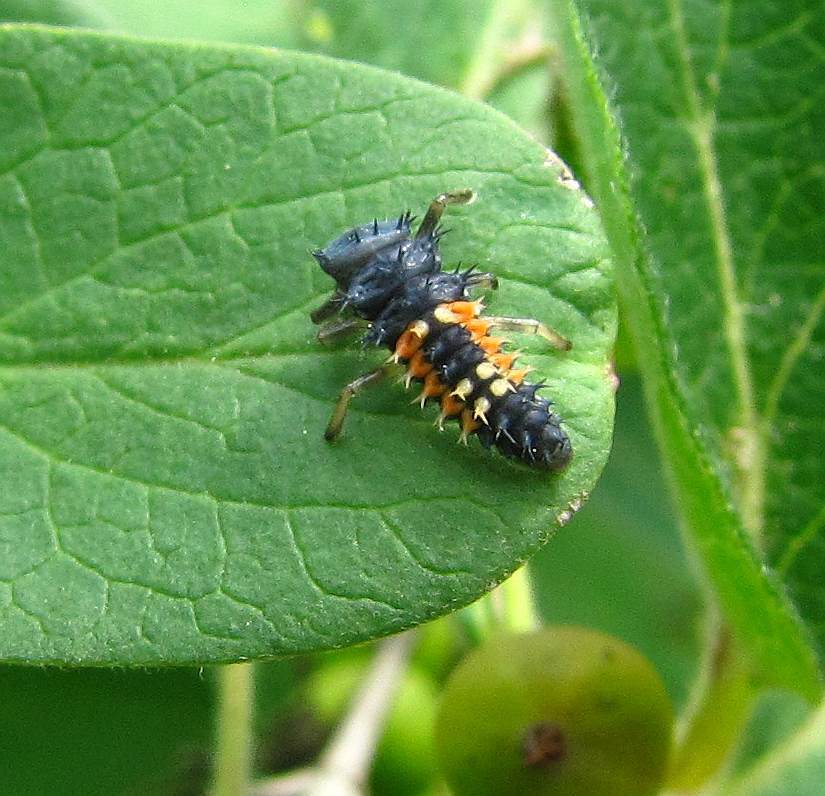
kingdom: Animalia
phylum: Arthropoda
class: Insecta
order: Coleoptera
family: Coccinellidae
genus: Harmonia
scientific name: Harmonia axyridis
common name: Harlequin ladybird
